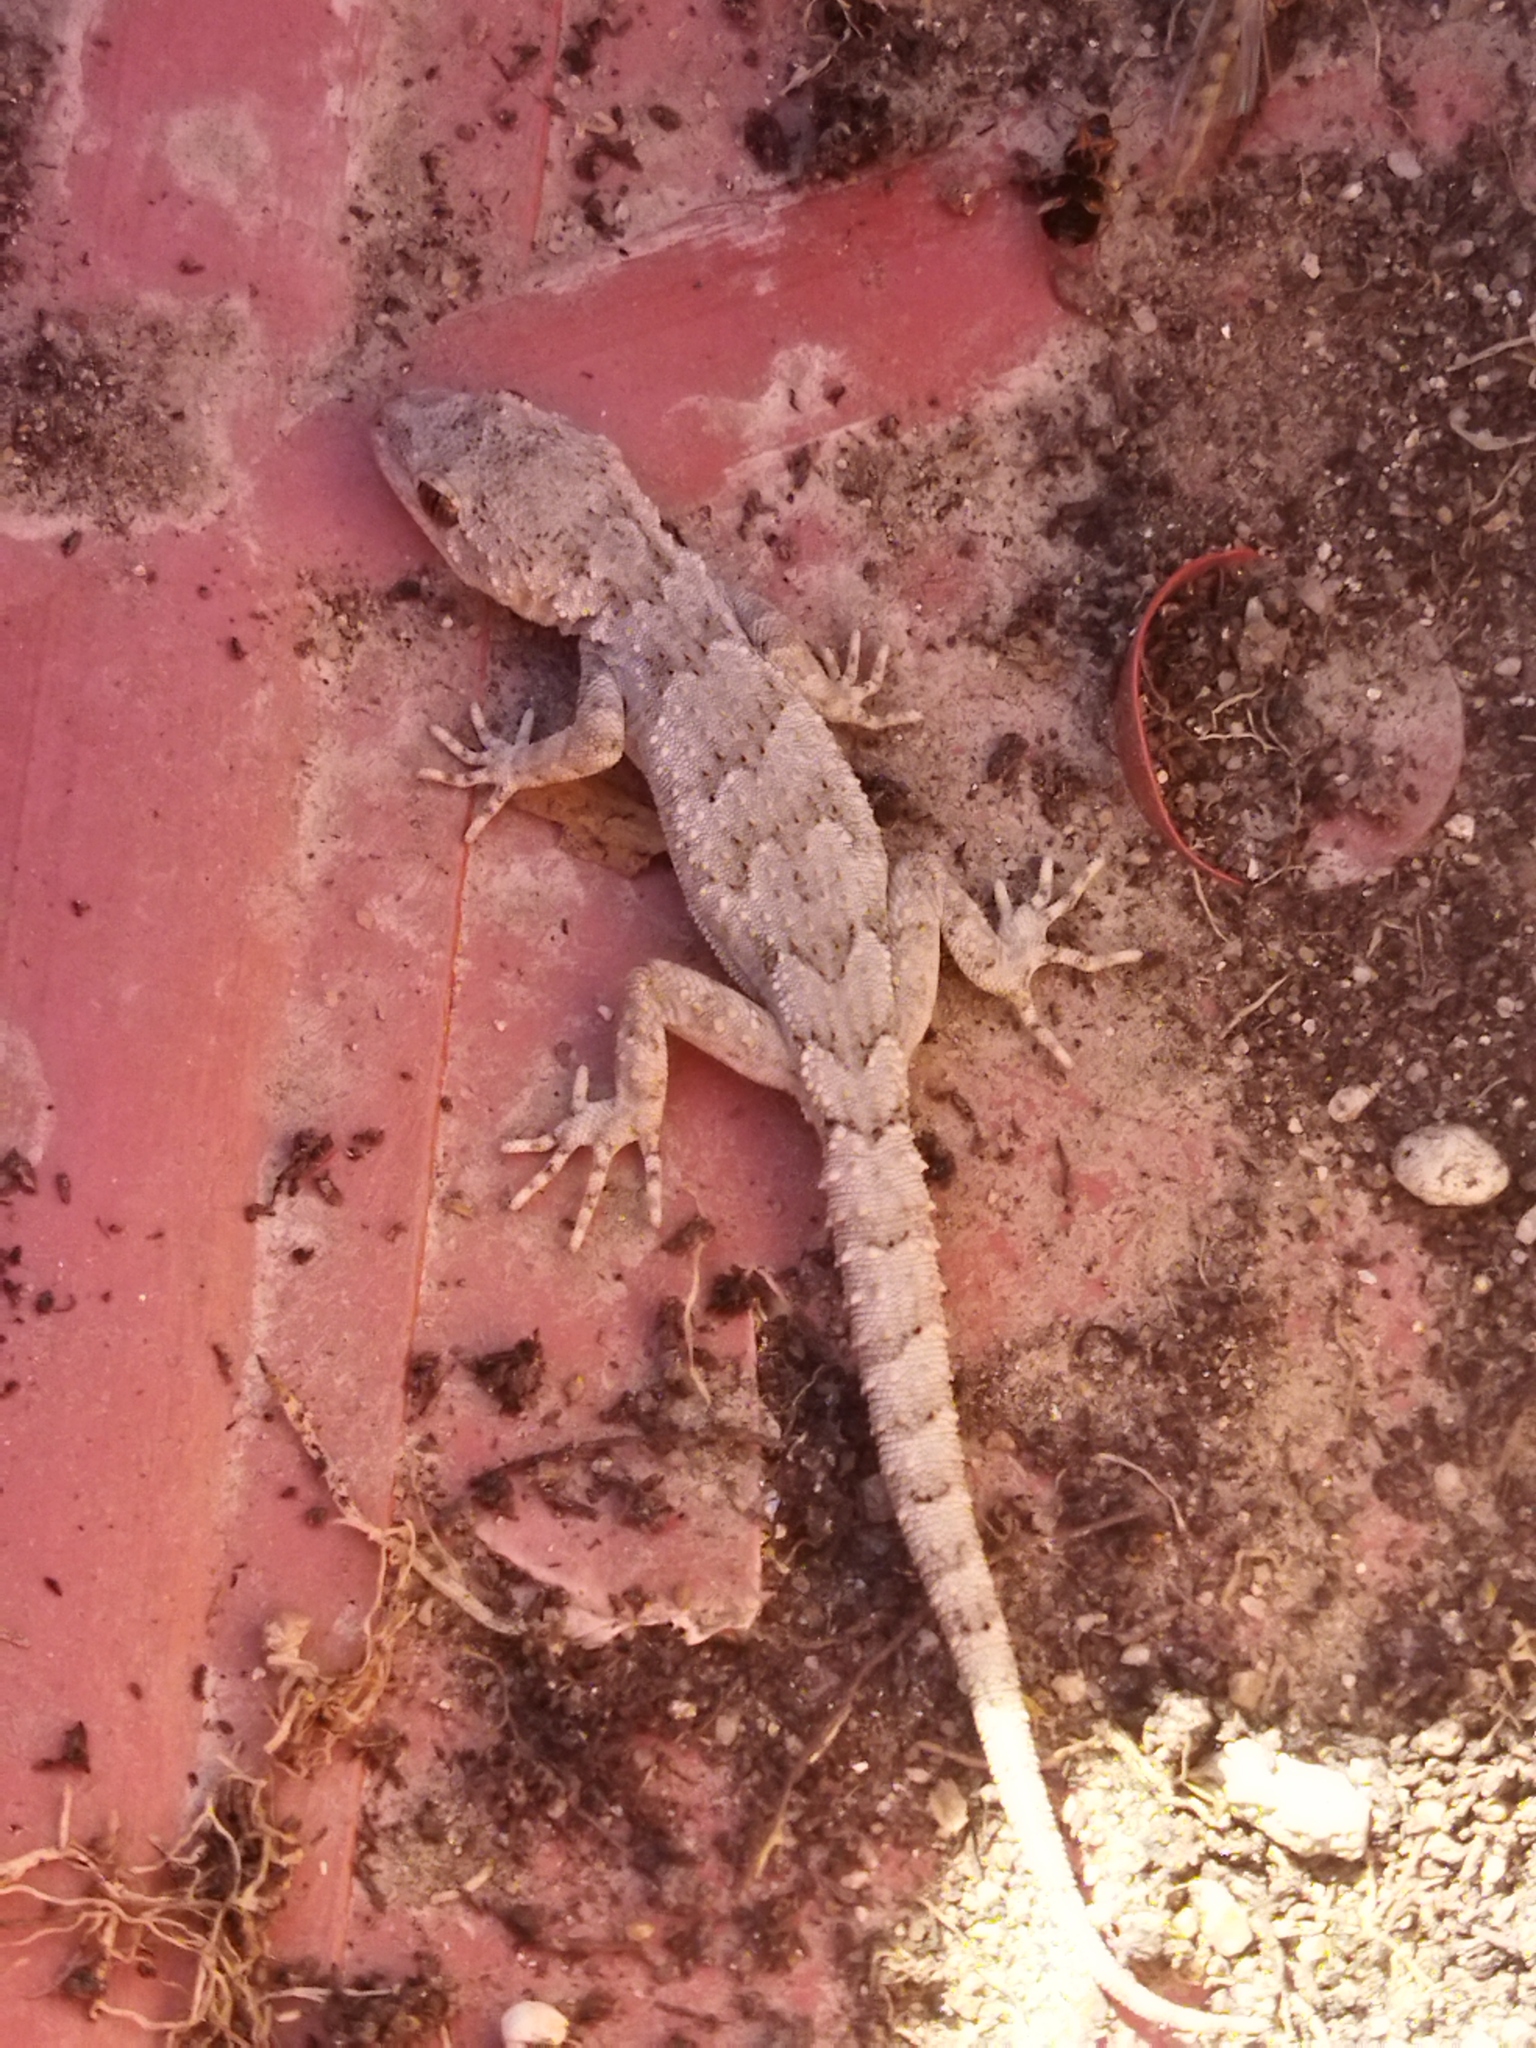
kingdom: Animalia
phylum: Chordata
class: Squamata
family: Gekkonidae
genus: Mediodactylus
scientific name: Mediodactylus kotschyi
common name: Kotschy's gecko
